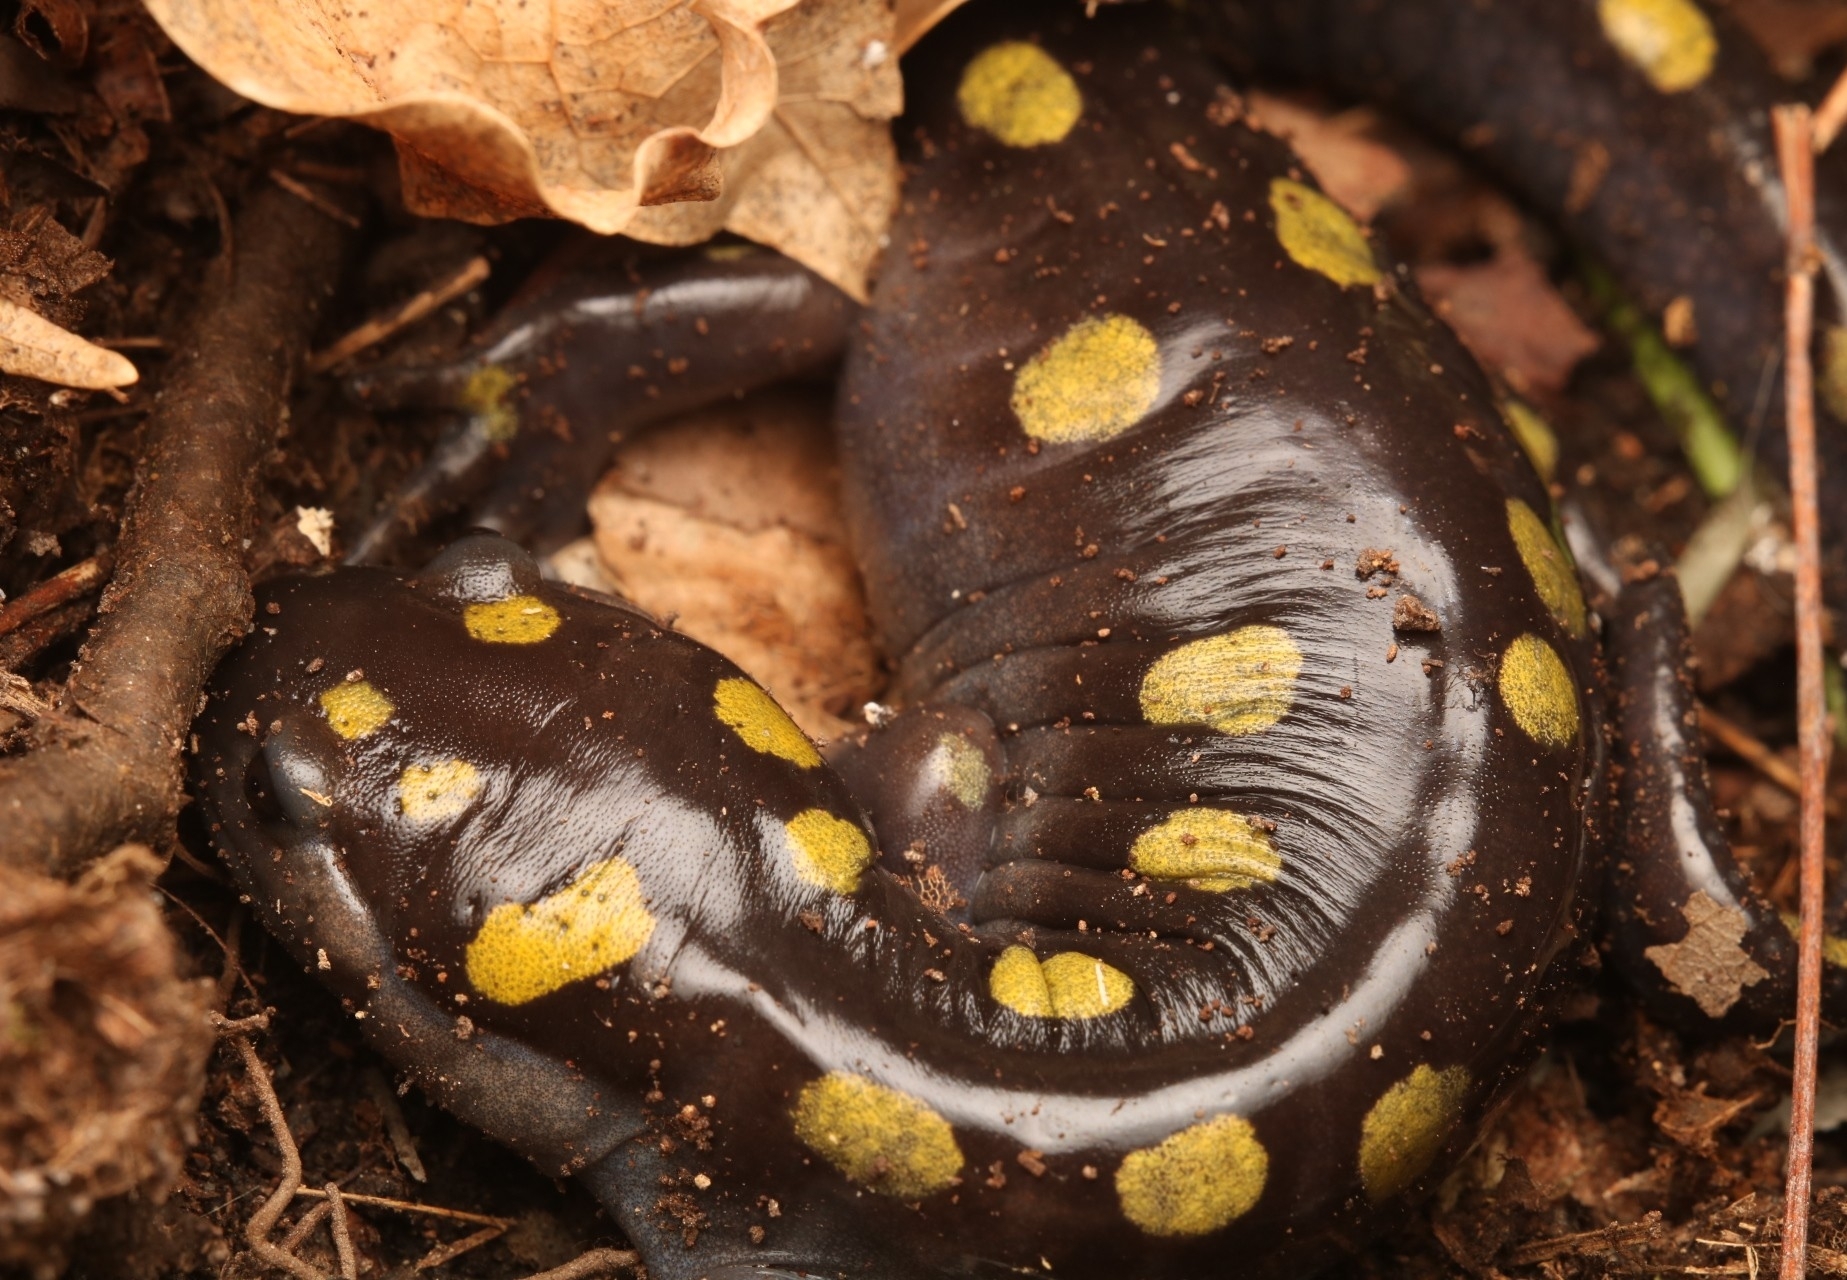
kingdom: Animalia
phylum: Chordata
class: Amphibia
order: Caudata
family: Ambystomatidae
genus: Ambystoma
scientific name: Ambystoma maculatum
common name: Spotted salamander
